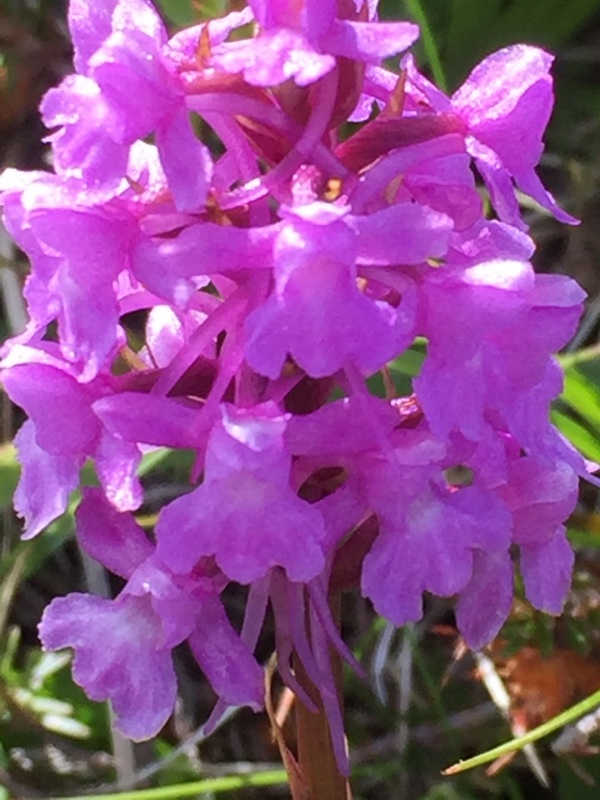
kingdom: Plantae
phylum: Tracheophyta
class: Liliopsida
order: Asparagales
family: Orchidaceae
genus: Gymnadenia
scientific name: Gymnadenia conopsea
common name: Fragrant orchid
